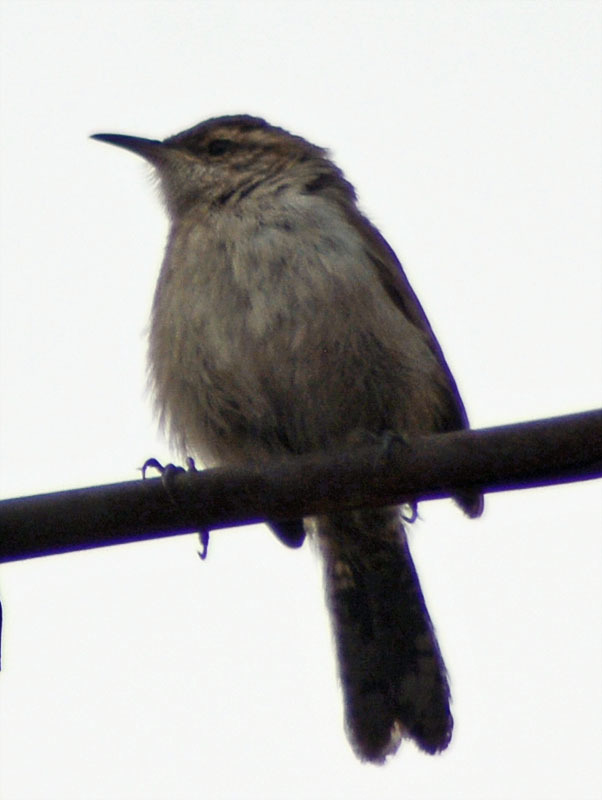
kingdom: Animalia
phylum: Chordata
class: Aves
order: Passeriformes
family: Troglodytidae
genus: Thryomanes
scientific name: Thryomanes bewickii
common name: Bewick's wren
